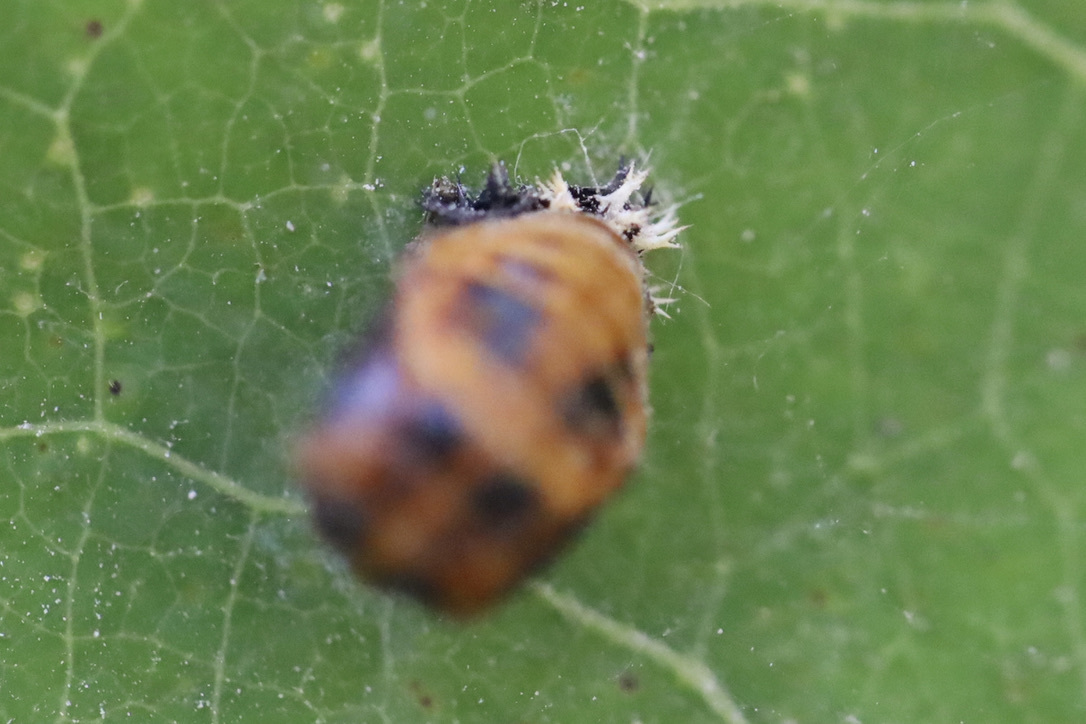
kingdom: Animalia
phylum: Arthropoda
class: Insecta
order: Coleoptera
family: Coccinellidae
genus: Harmonia
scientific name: Harmonia axyridis
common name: Harlequin ladybird
